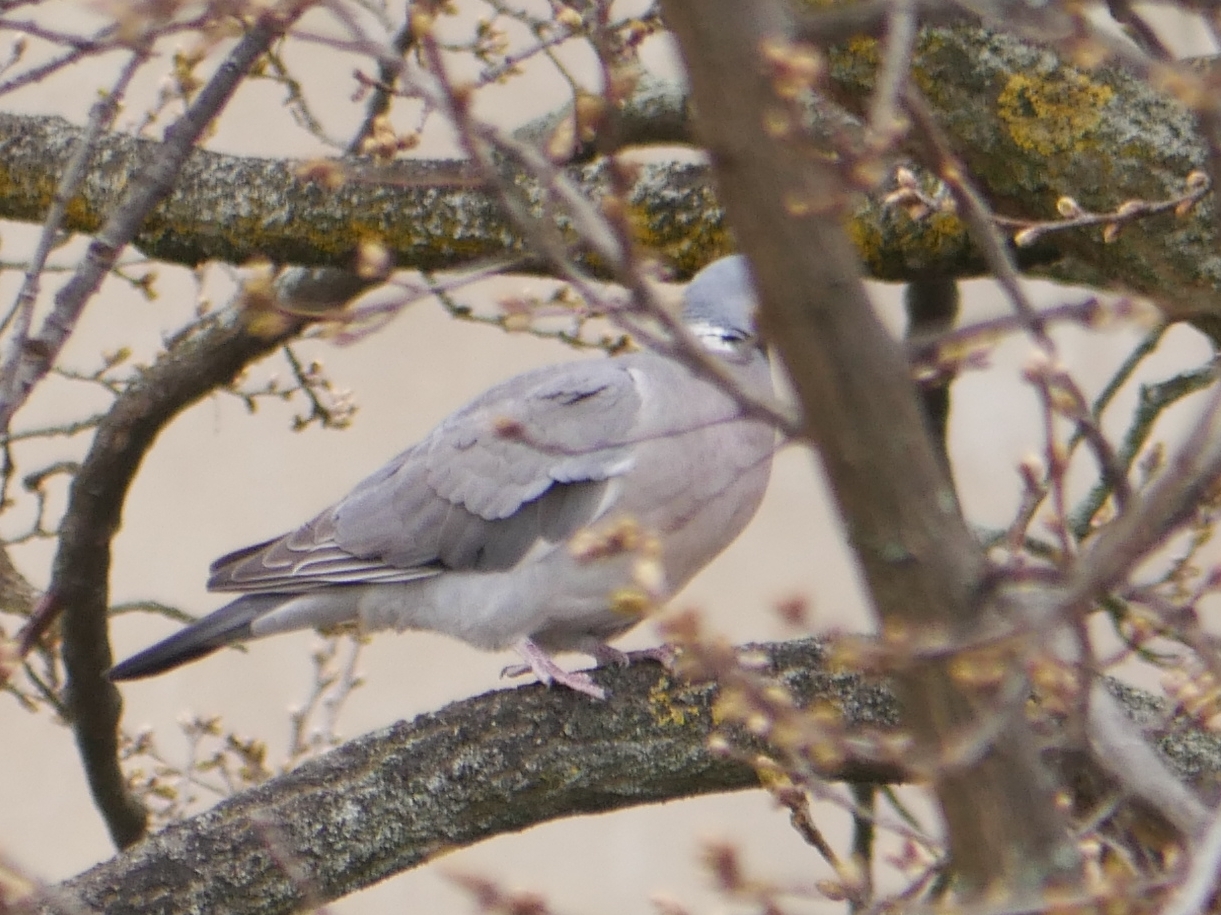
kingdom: Animalia
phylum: Chordata
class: Aves
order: Columbiformes
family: Columbidae
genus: Columba
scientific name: Columba palumbus
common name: Common wood pigeon
